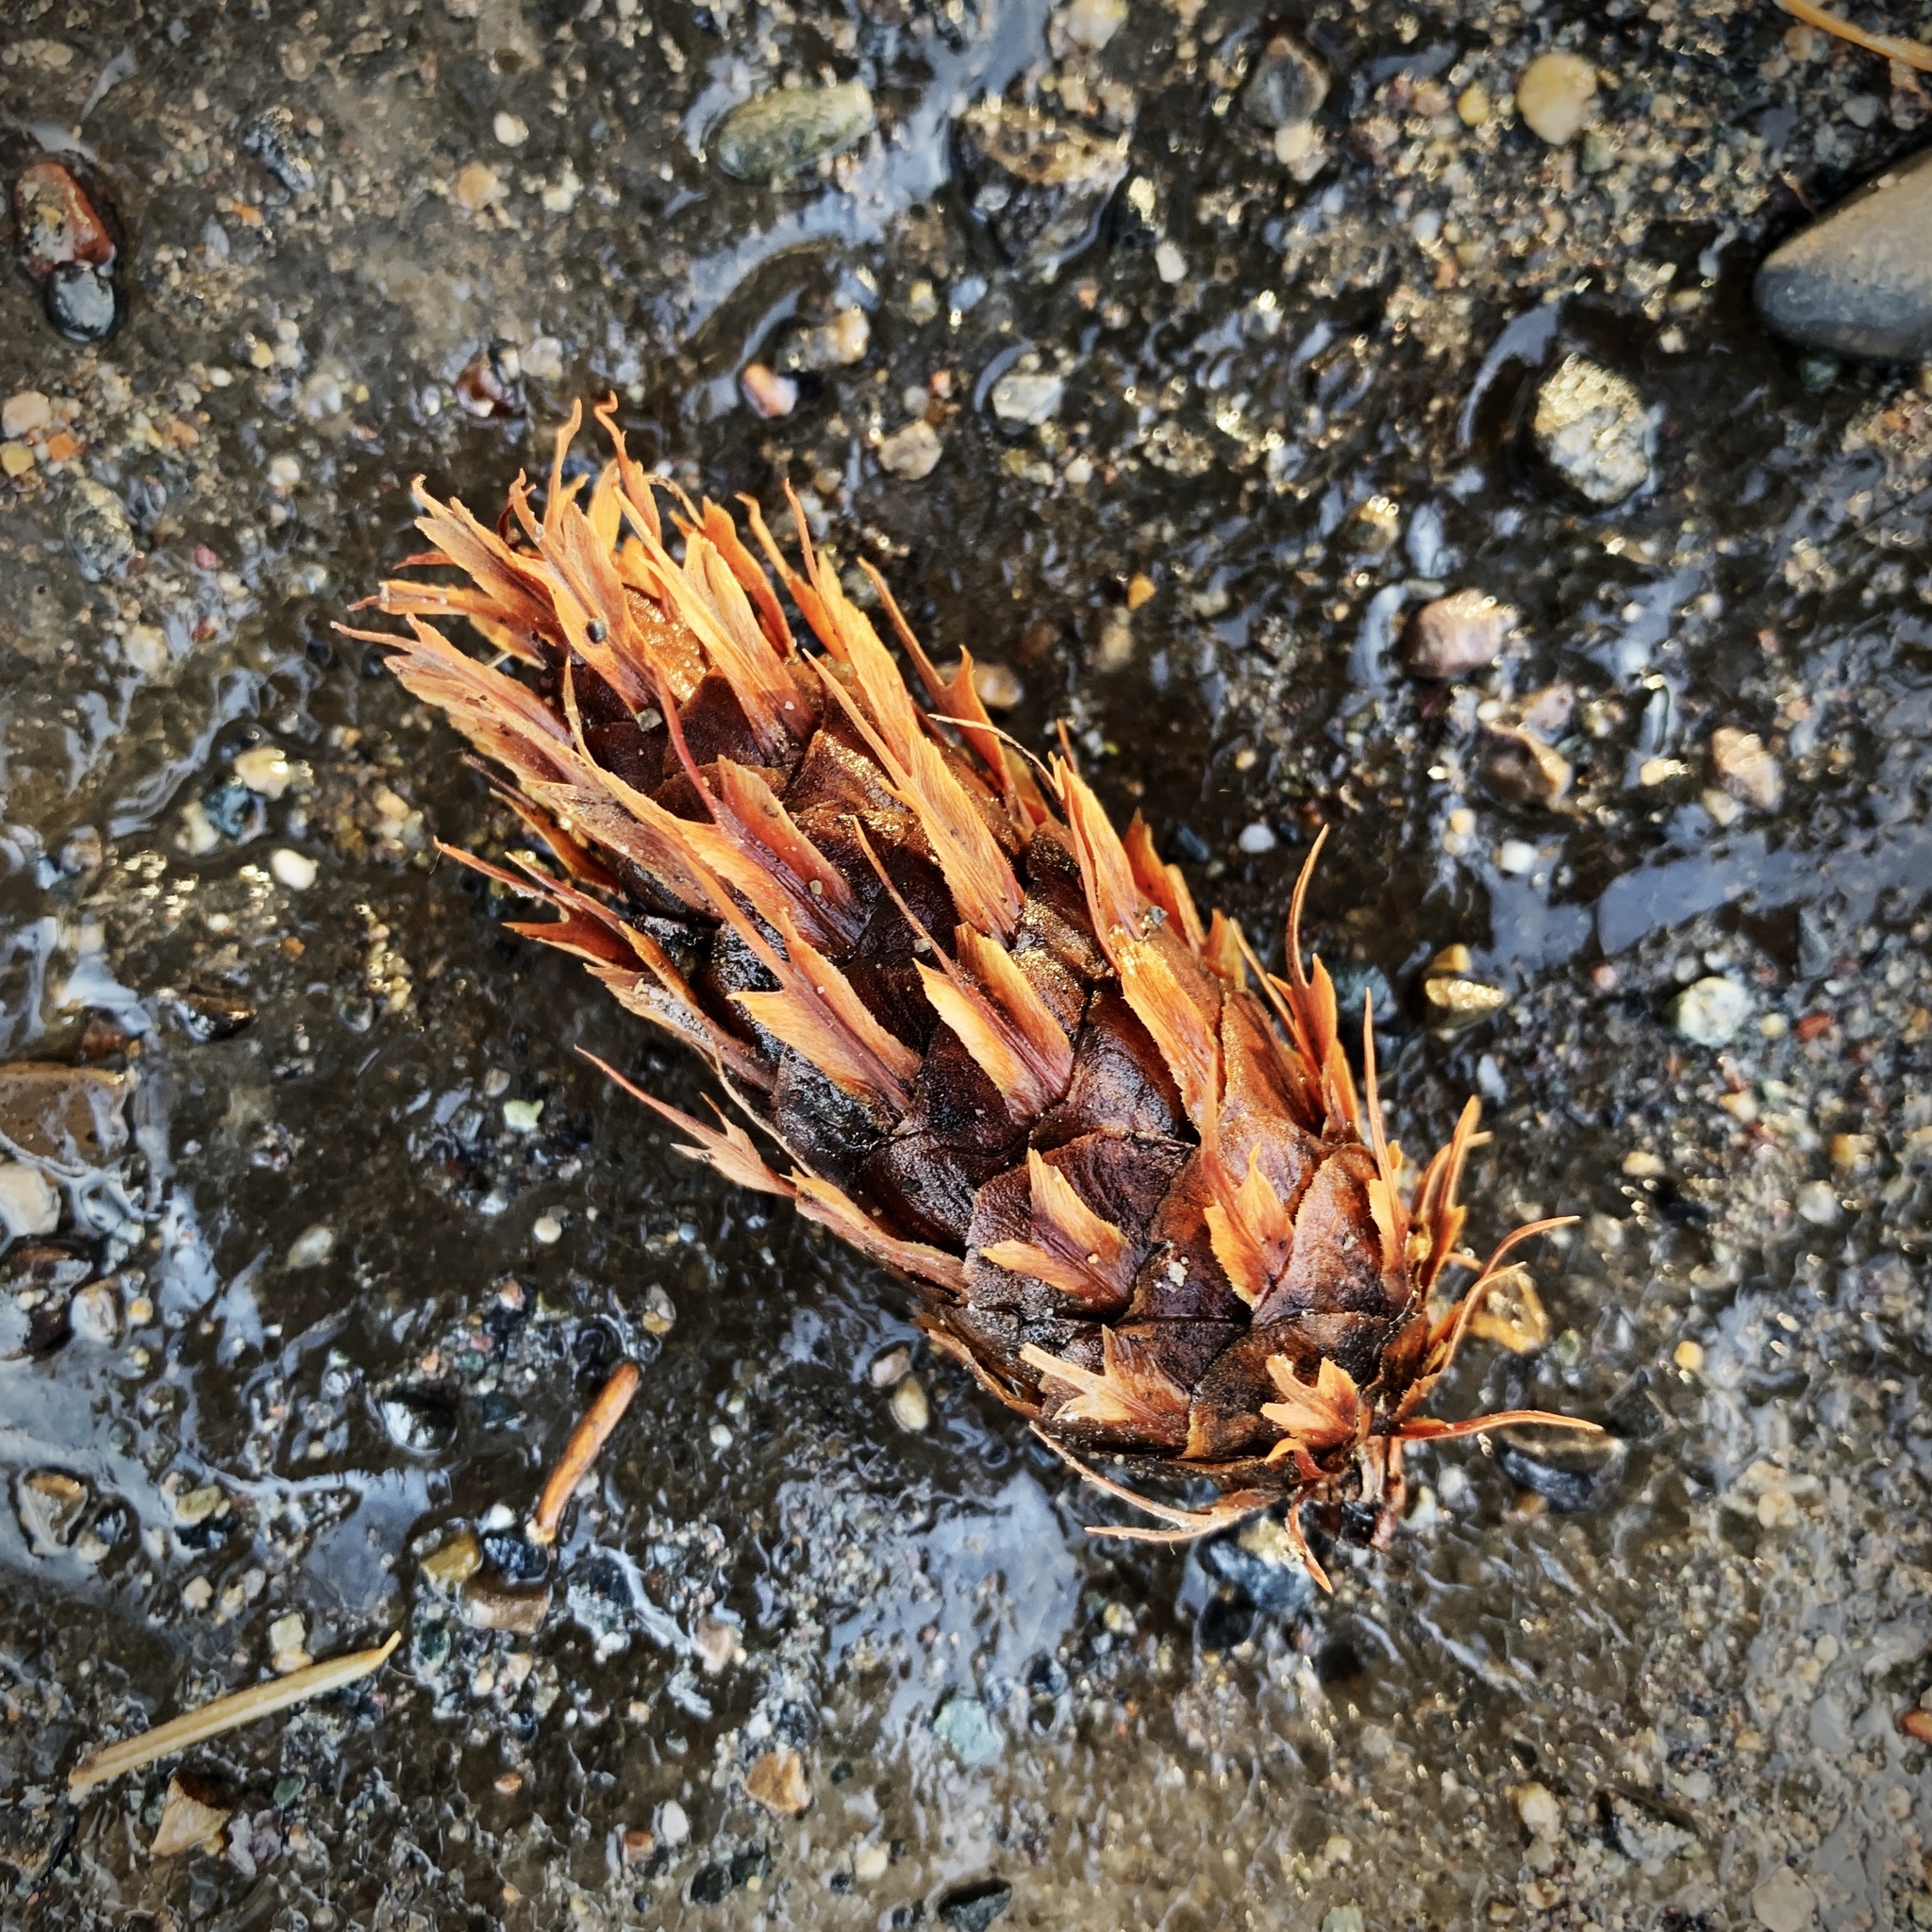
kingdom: Plantae
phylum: Tracheophyta
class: Pinopsida
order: Pinales
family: Pinaceae
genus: Pseudotsuga
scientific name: Pseudotsuga menziesii
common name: Douglas fir
